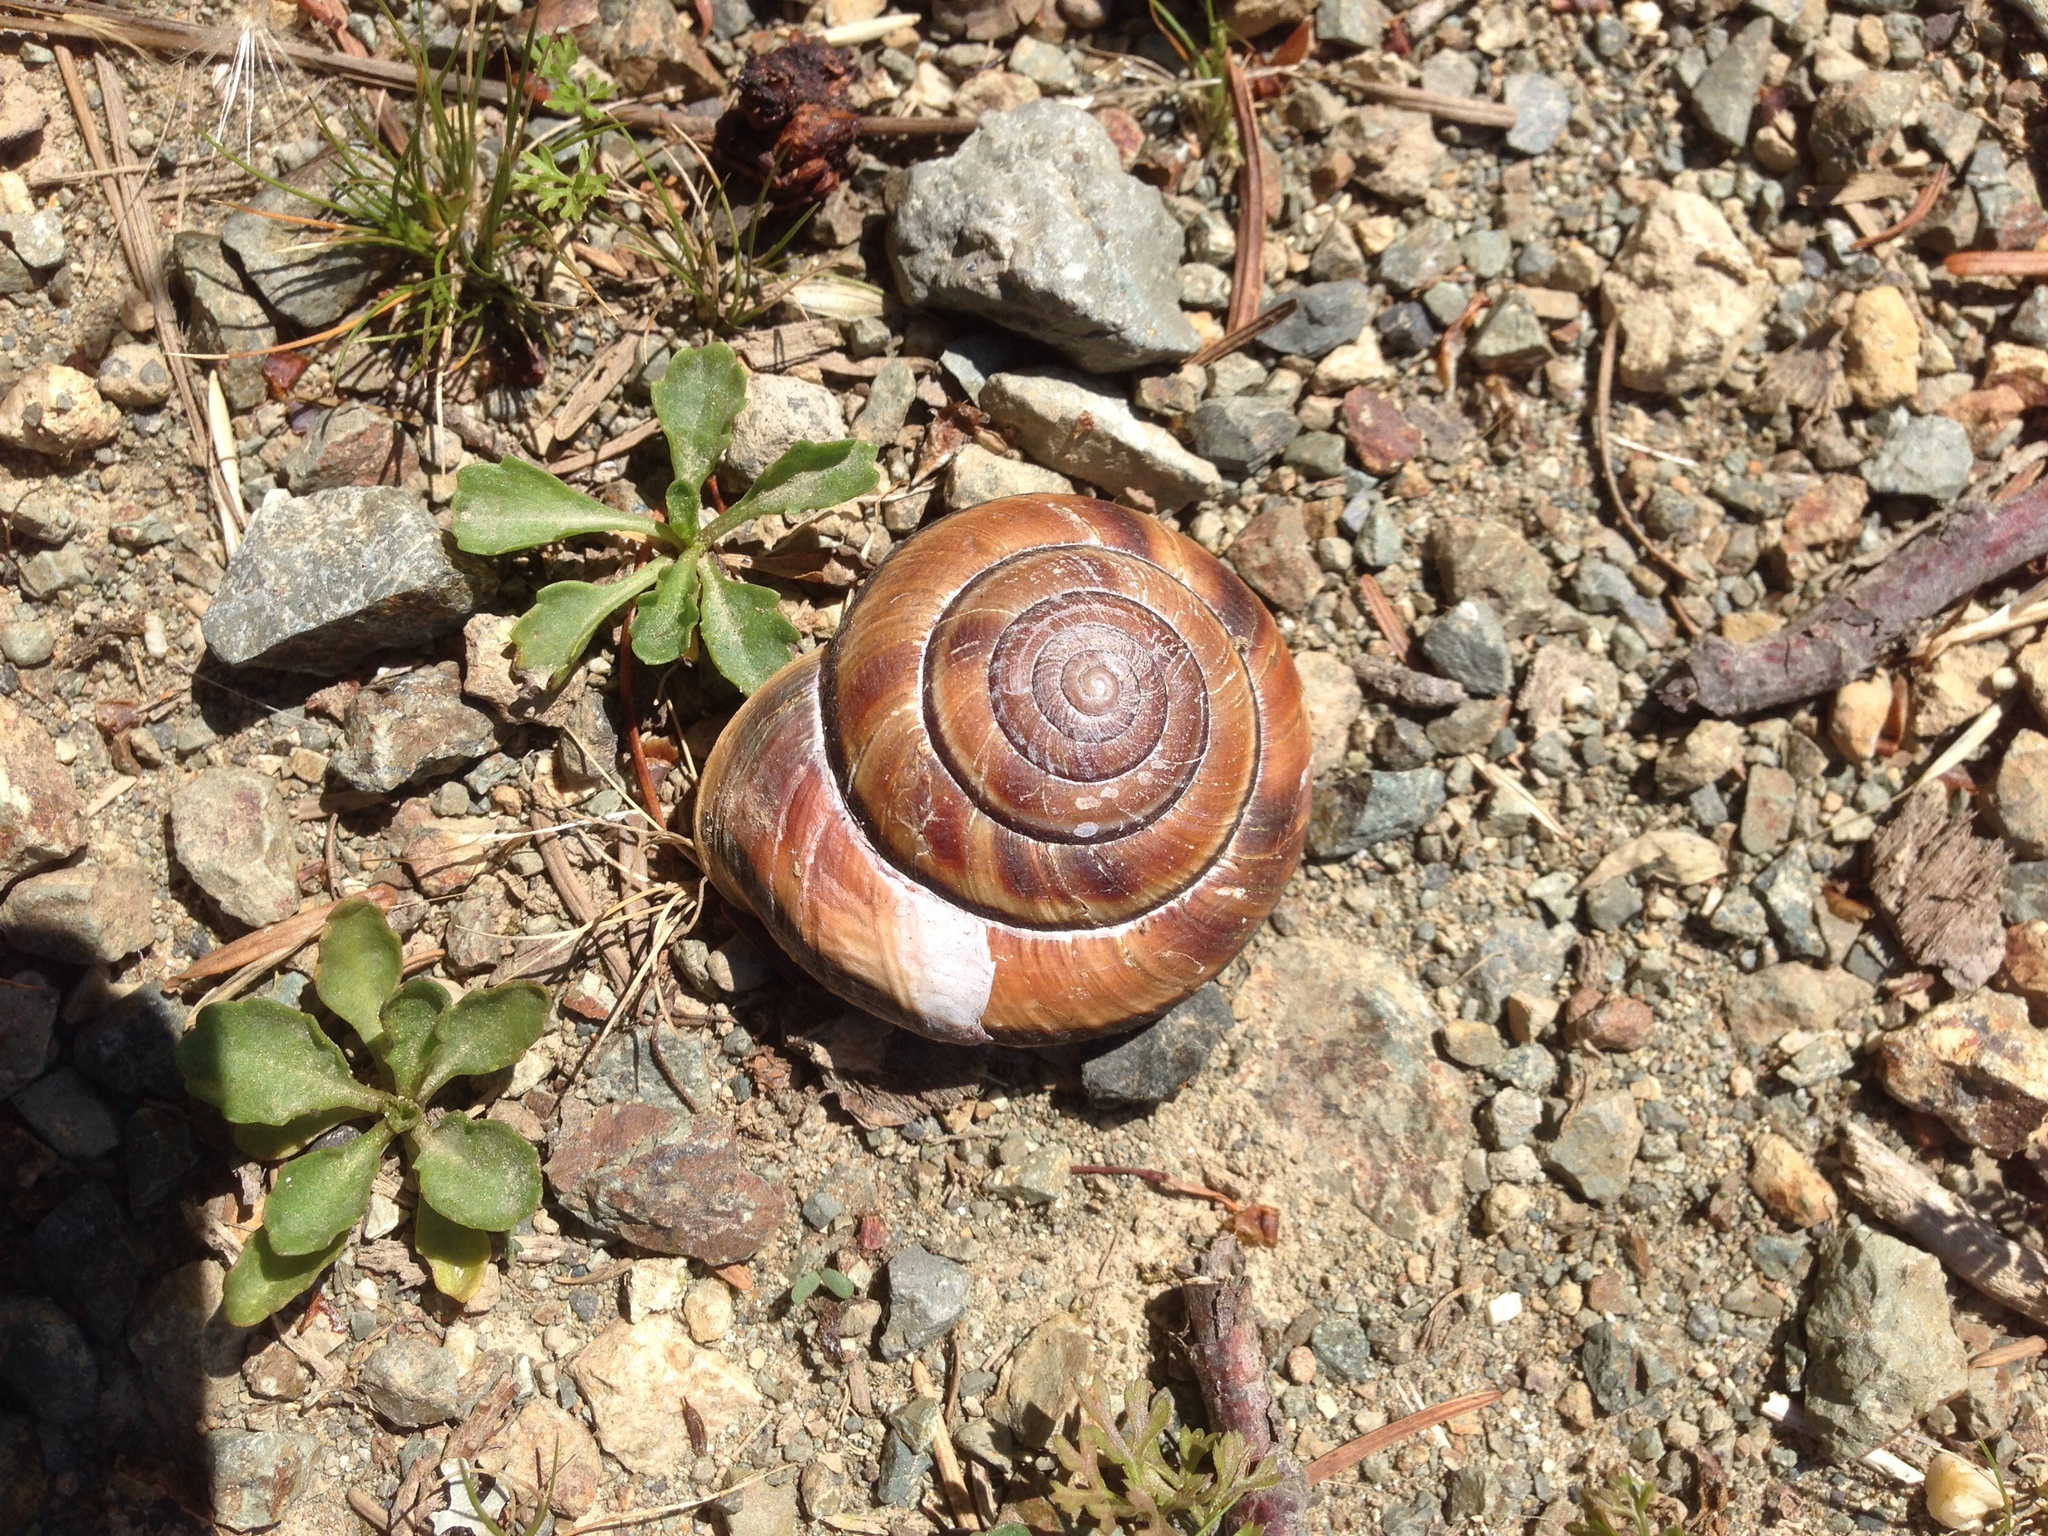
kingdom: Animalia
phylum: Mollusca
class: Gastropoda
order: Stylommatophora
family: Xanthonychidae
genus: Monadenia
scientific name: Monadenia fidelis
